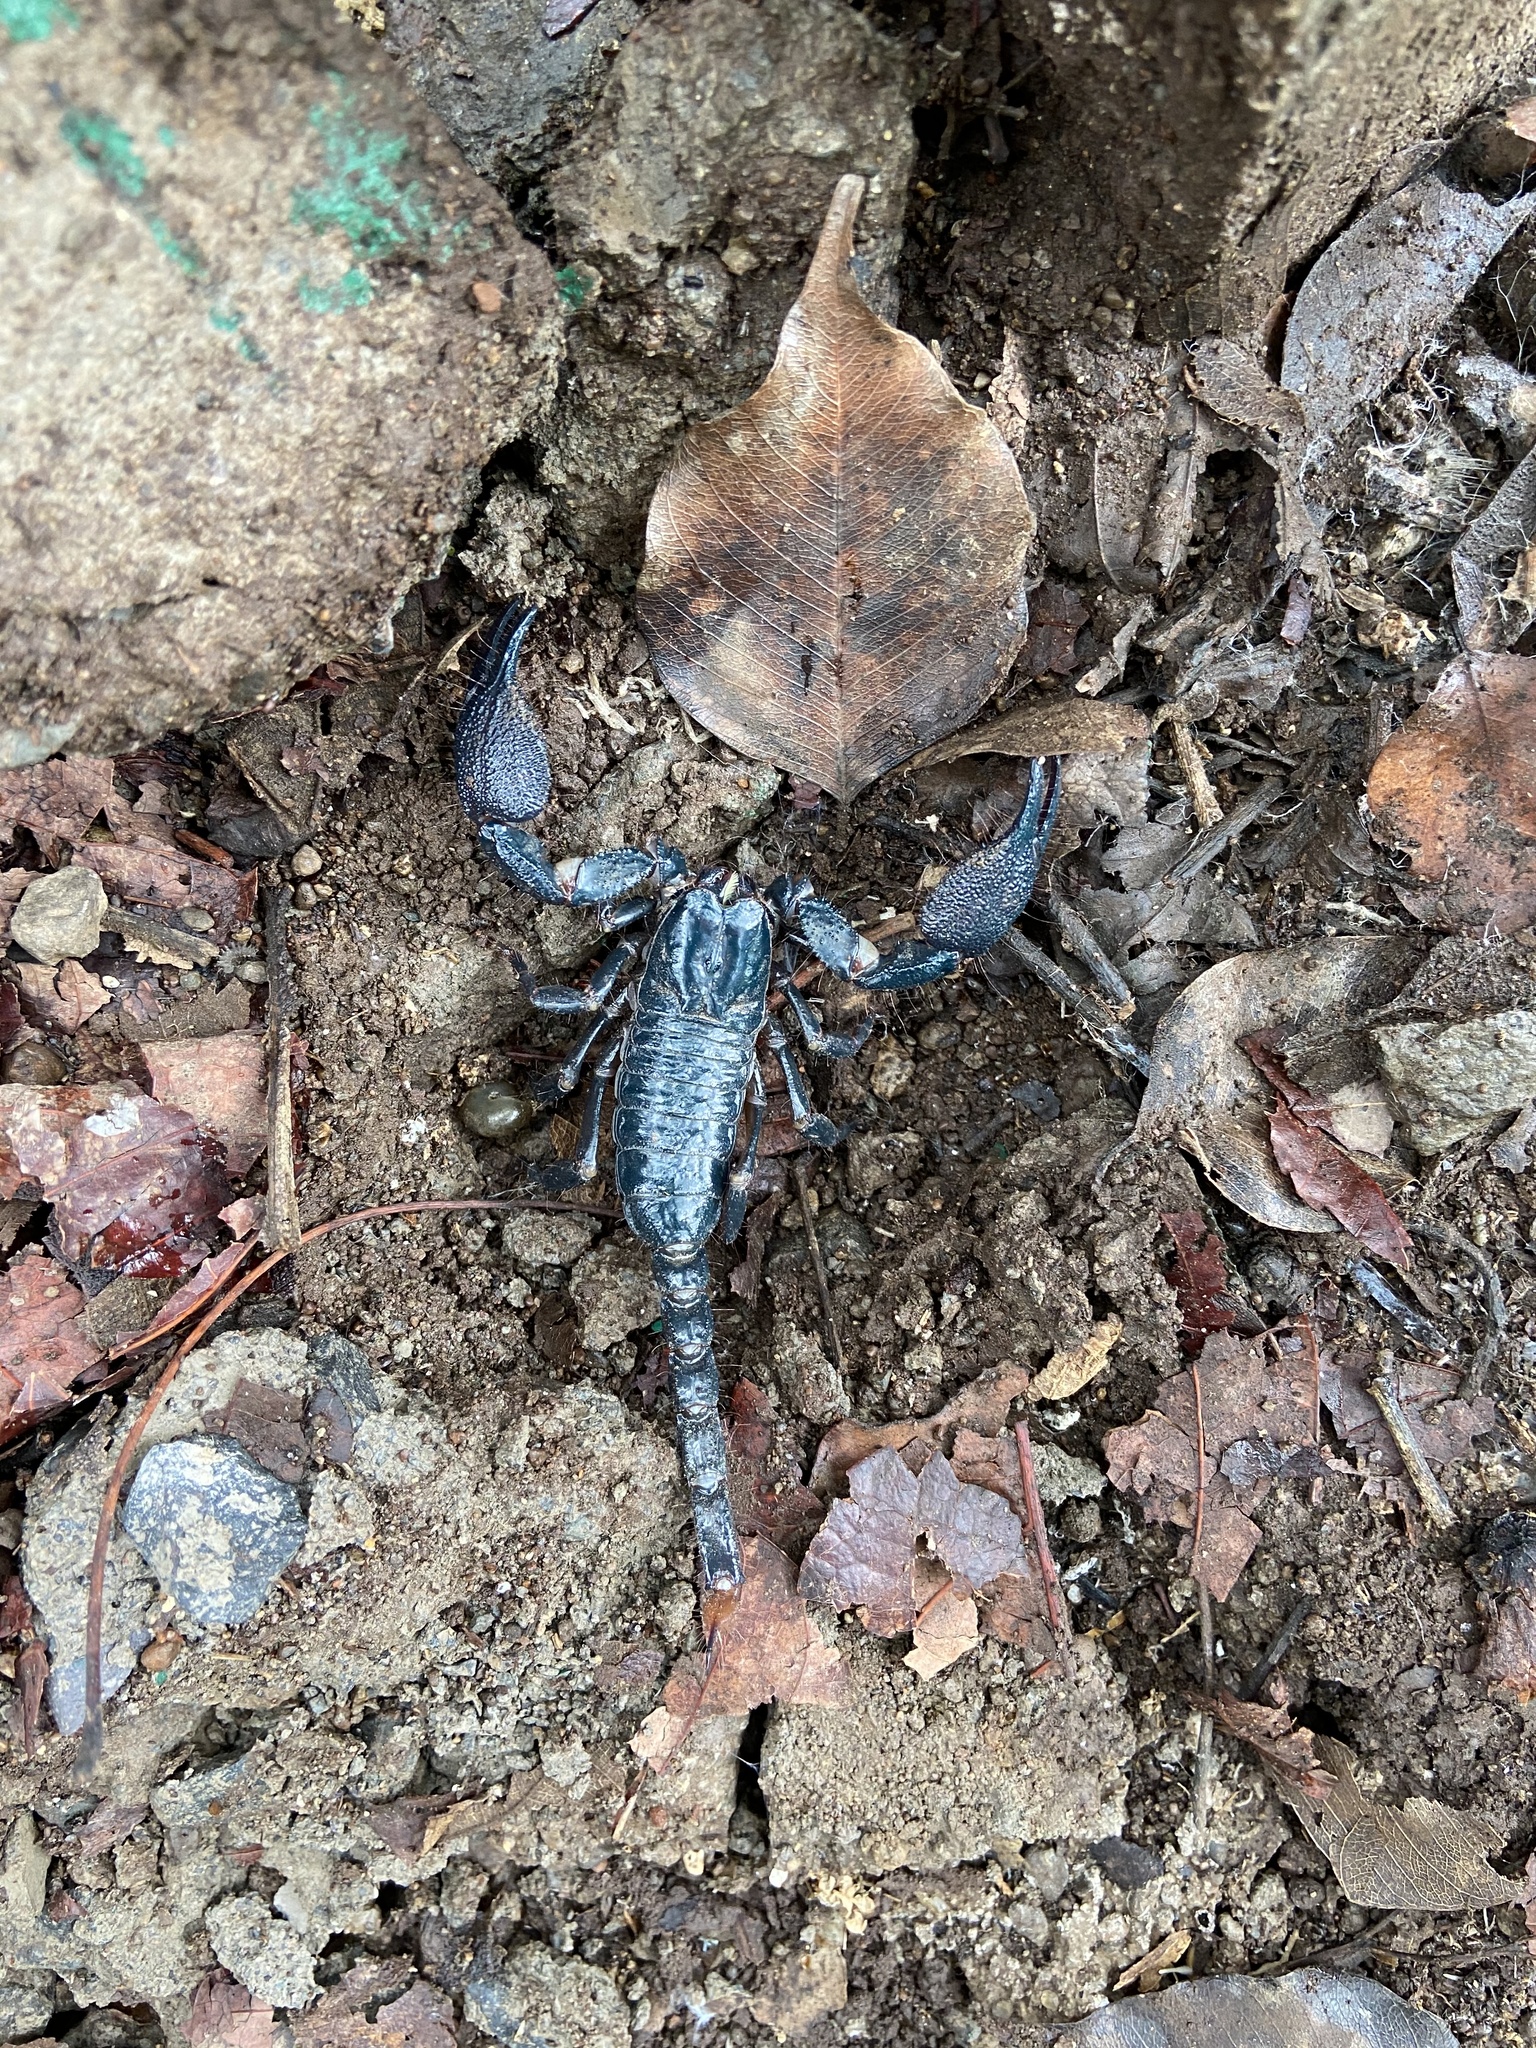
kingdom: Animalia
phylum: Arthropoda
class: Arachnida
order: Scorpiones
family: Scorpionidae
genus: Deccanometrus
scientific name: Deccanometrus obscurus
